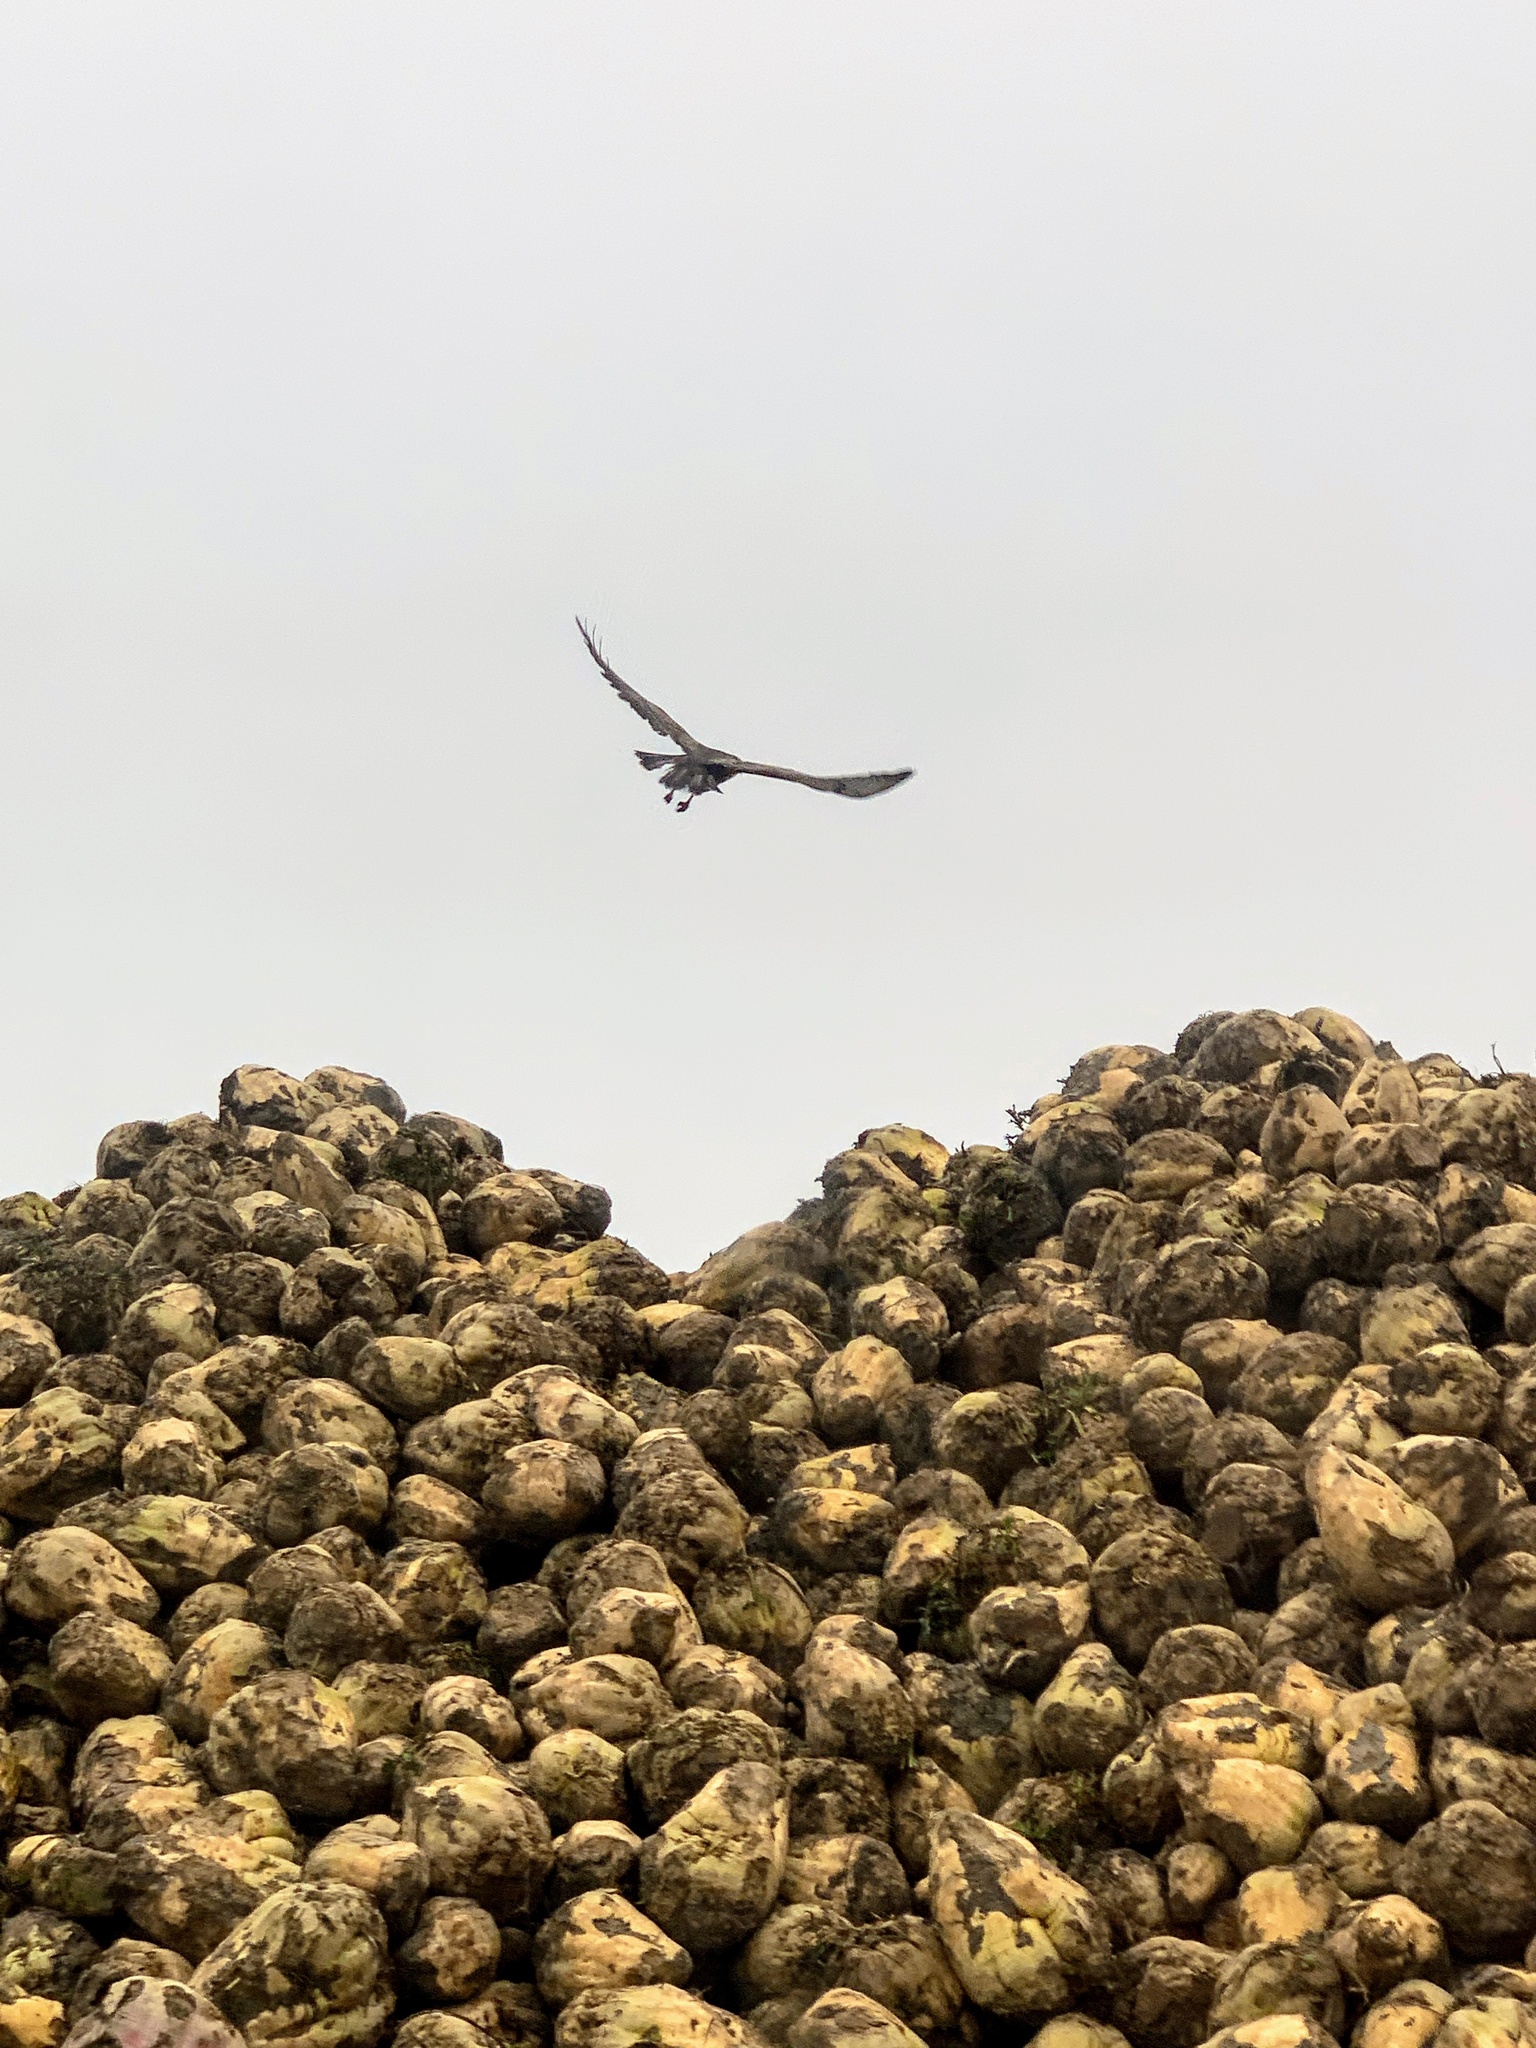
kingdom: Animalia
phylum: Chordata
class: Aves
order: Accipitriformes
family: Accipitridae
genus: Buteo
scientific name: Buteo buteo
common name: Common buzzard
